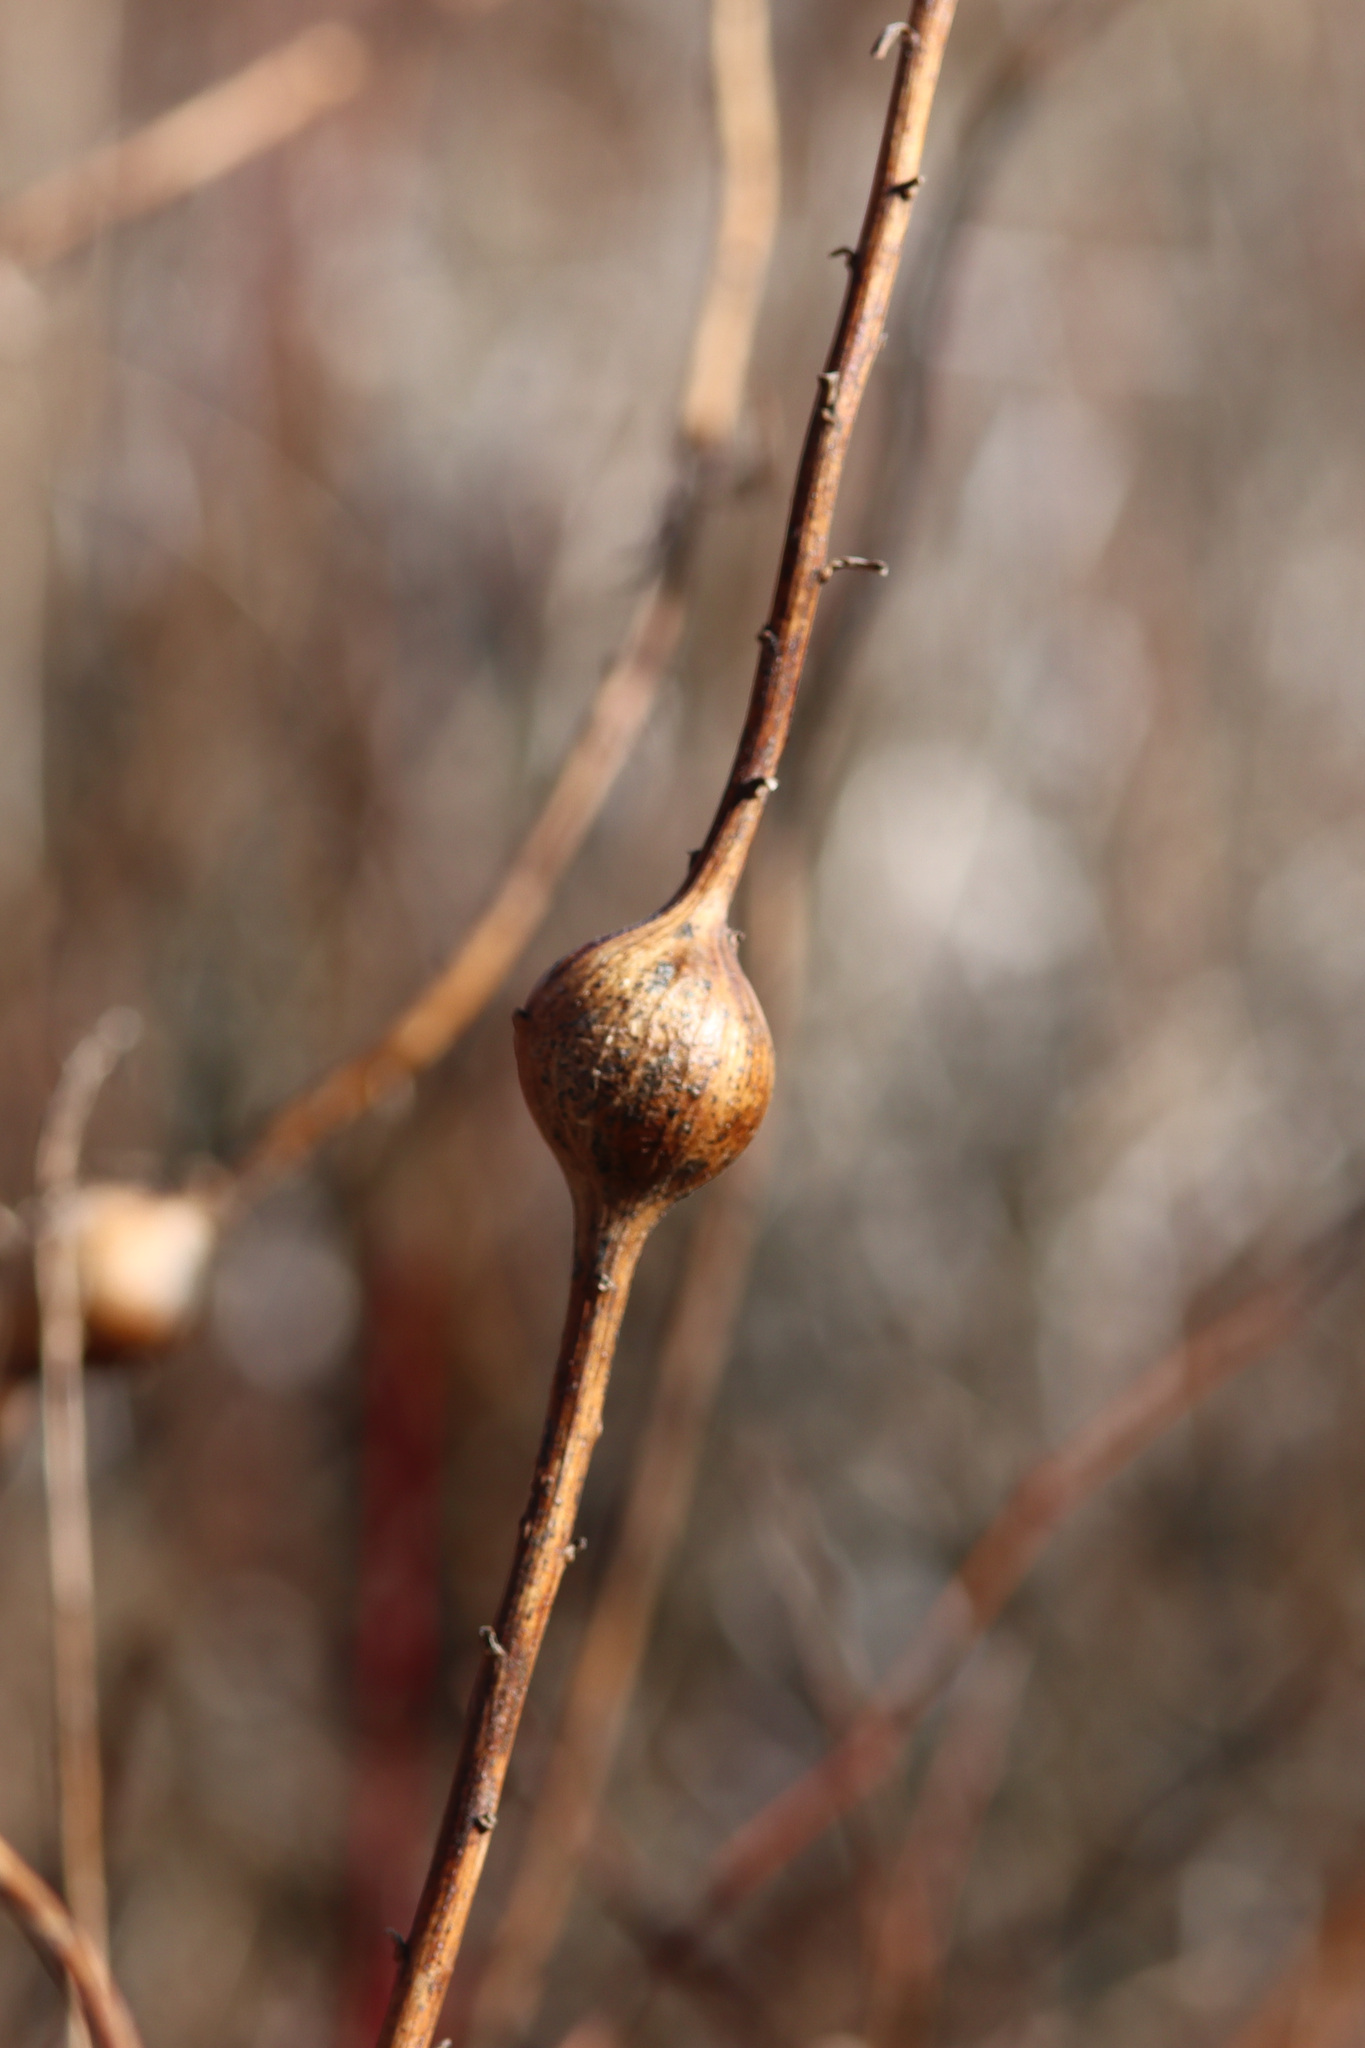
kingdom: Animalia
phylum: Arthropoda
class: Insecta
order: Diptera
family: Tephritidae
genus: Eurosta
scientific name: Eurosta solidaginis
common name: Goldenrod gall fly
